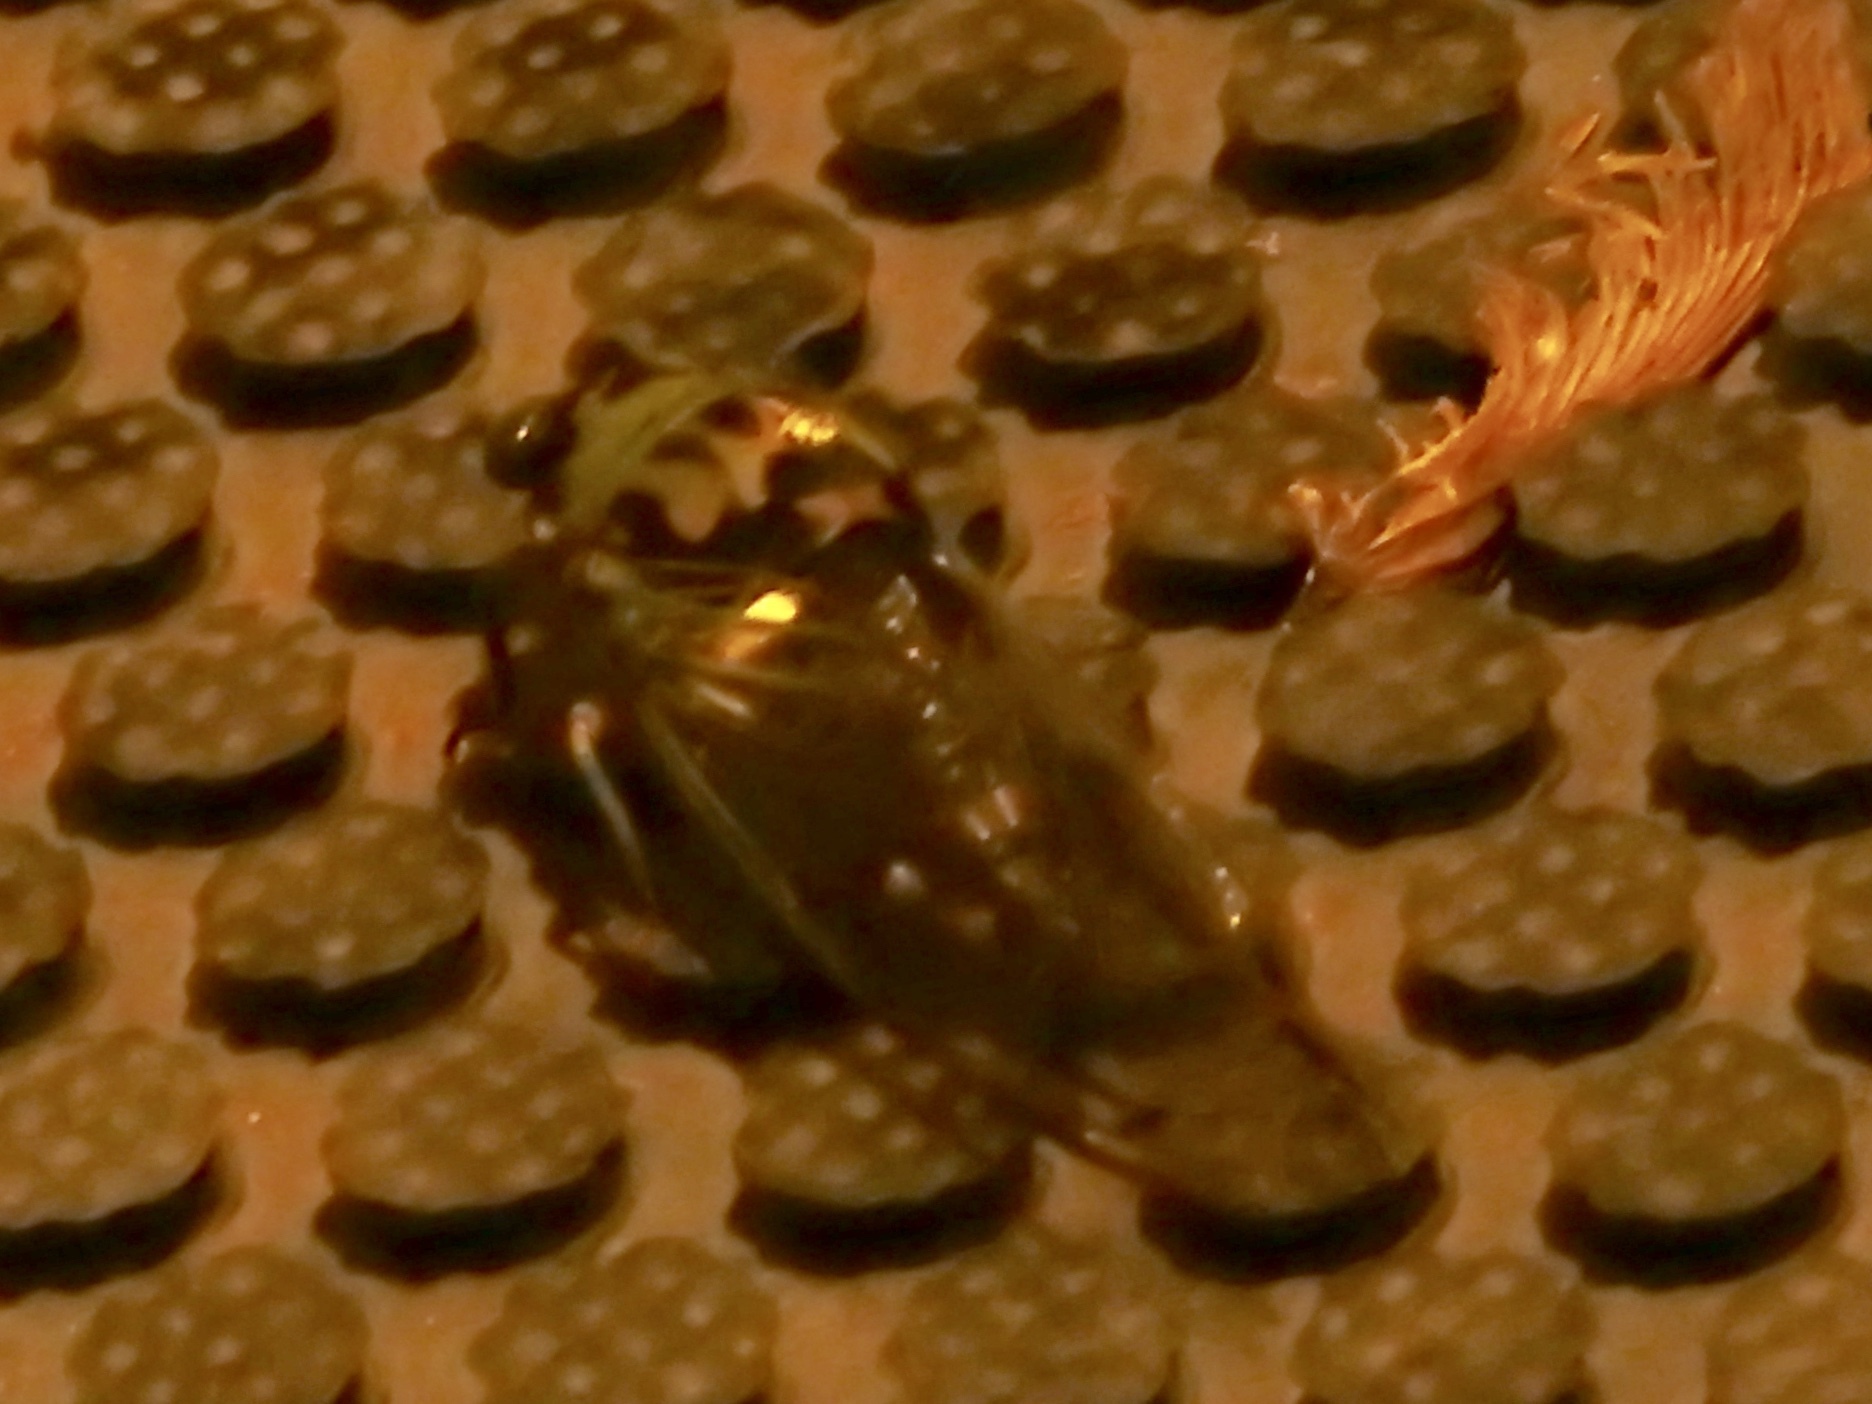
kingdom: Animalia
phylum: Arthropoda
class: Insecta
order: Hemiptera
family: Cicadidae
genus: Neotibicen
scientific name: Neotibicen pruinosus
